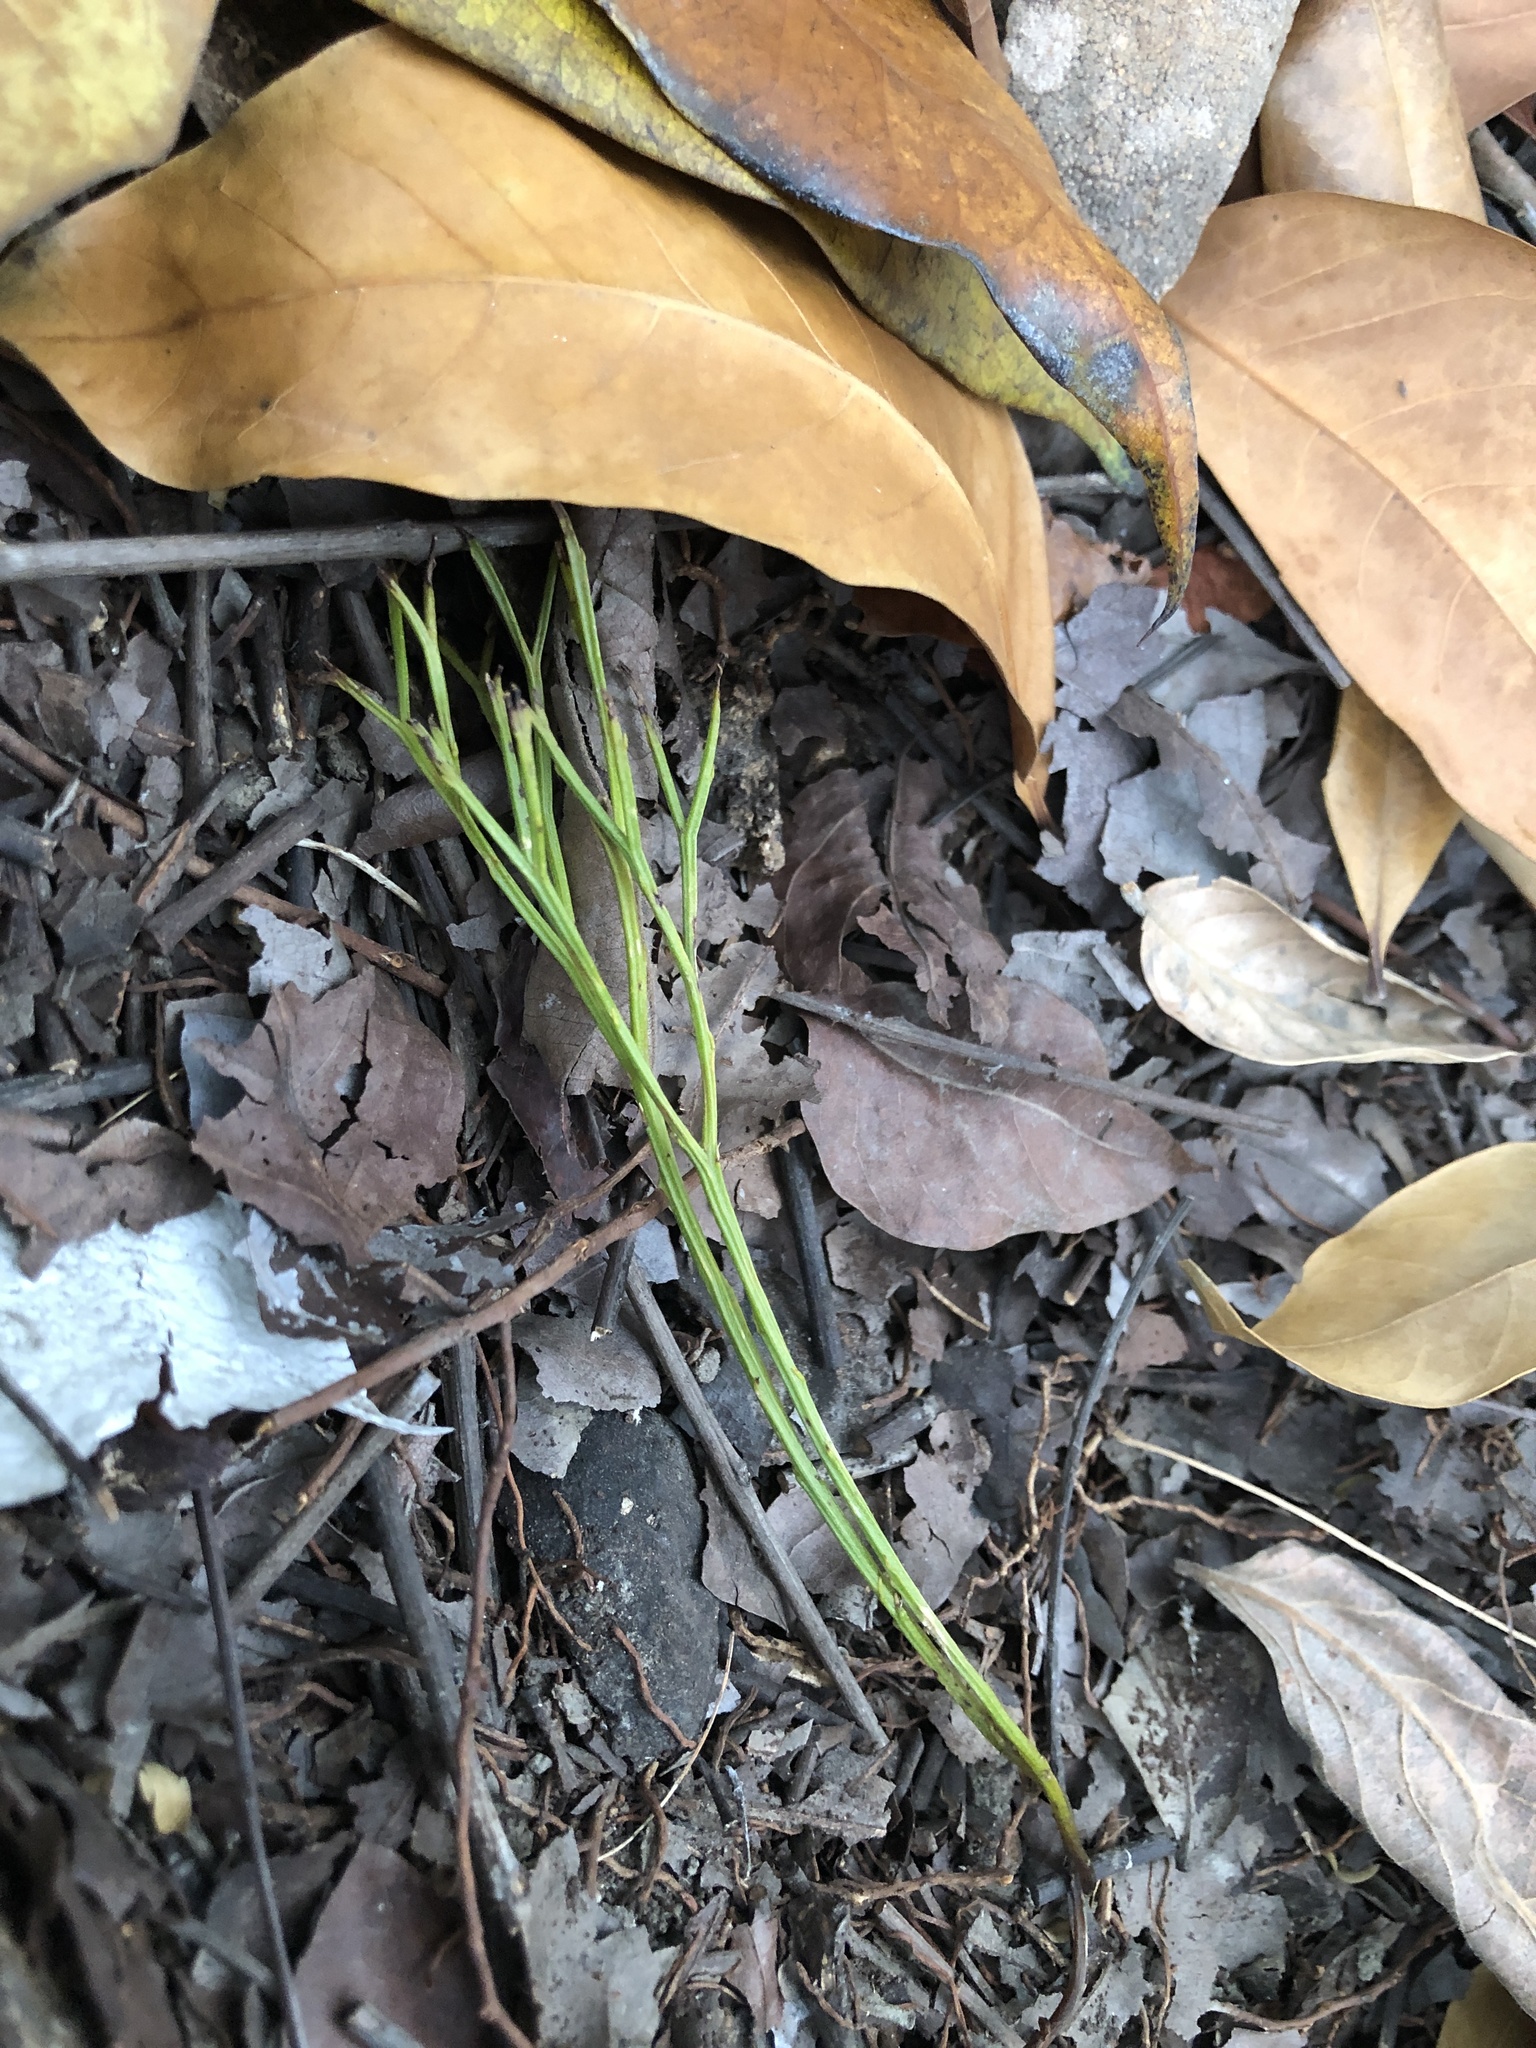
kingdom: Plantae
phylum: Tracheophyta
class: Polypodiopsida
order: Psilotales
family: Psilotaceae
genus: Psilotum
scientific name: Psilotum nudum
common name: Skeleton fork fern
